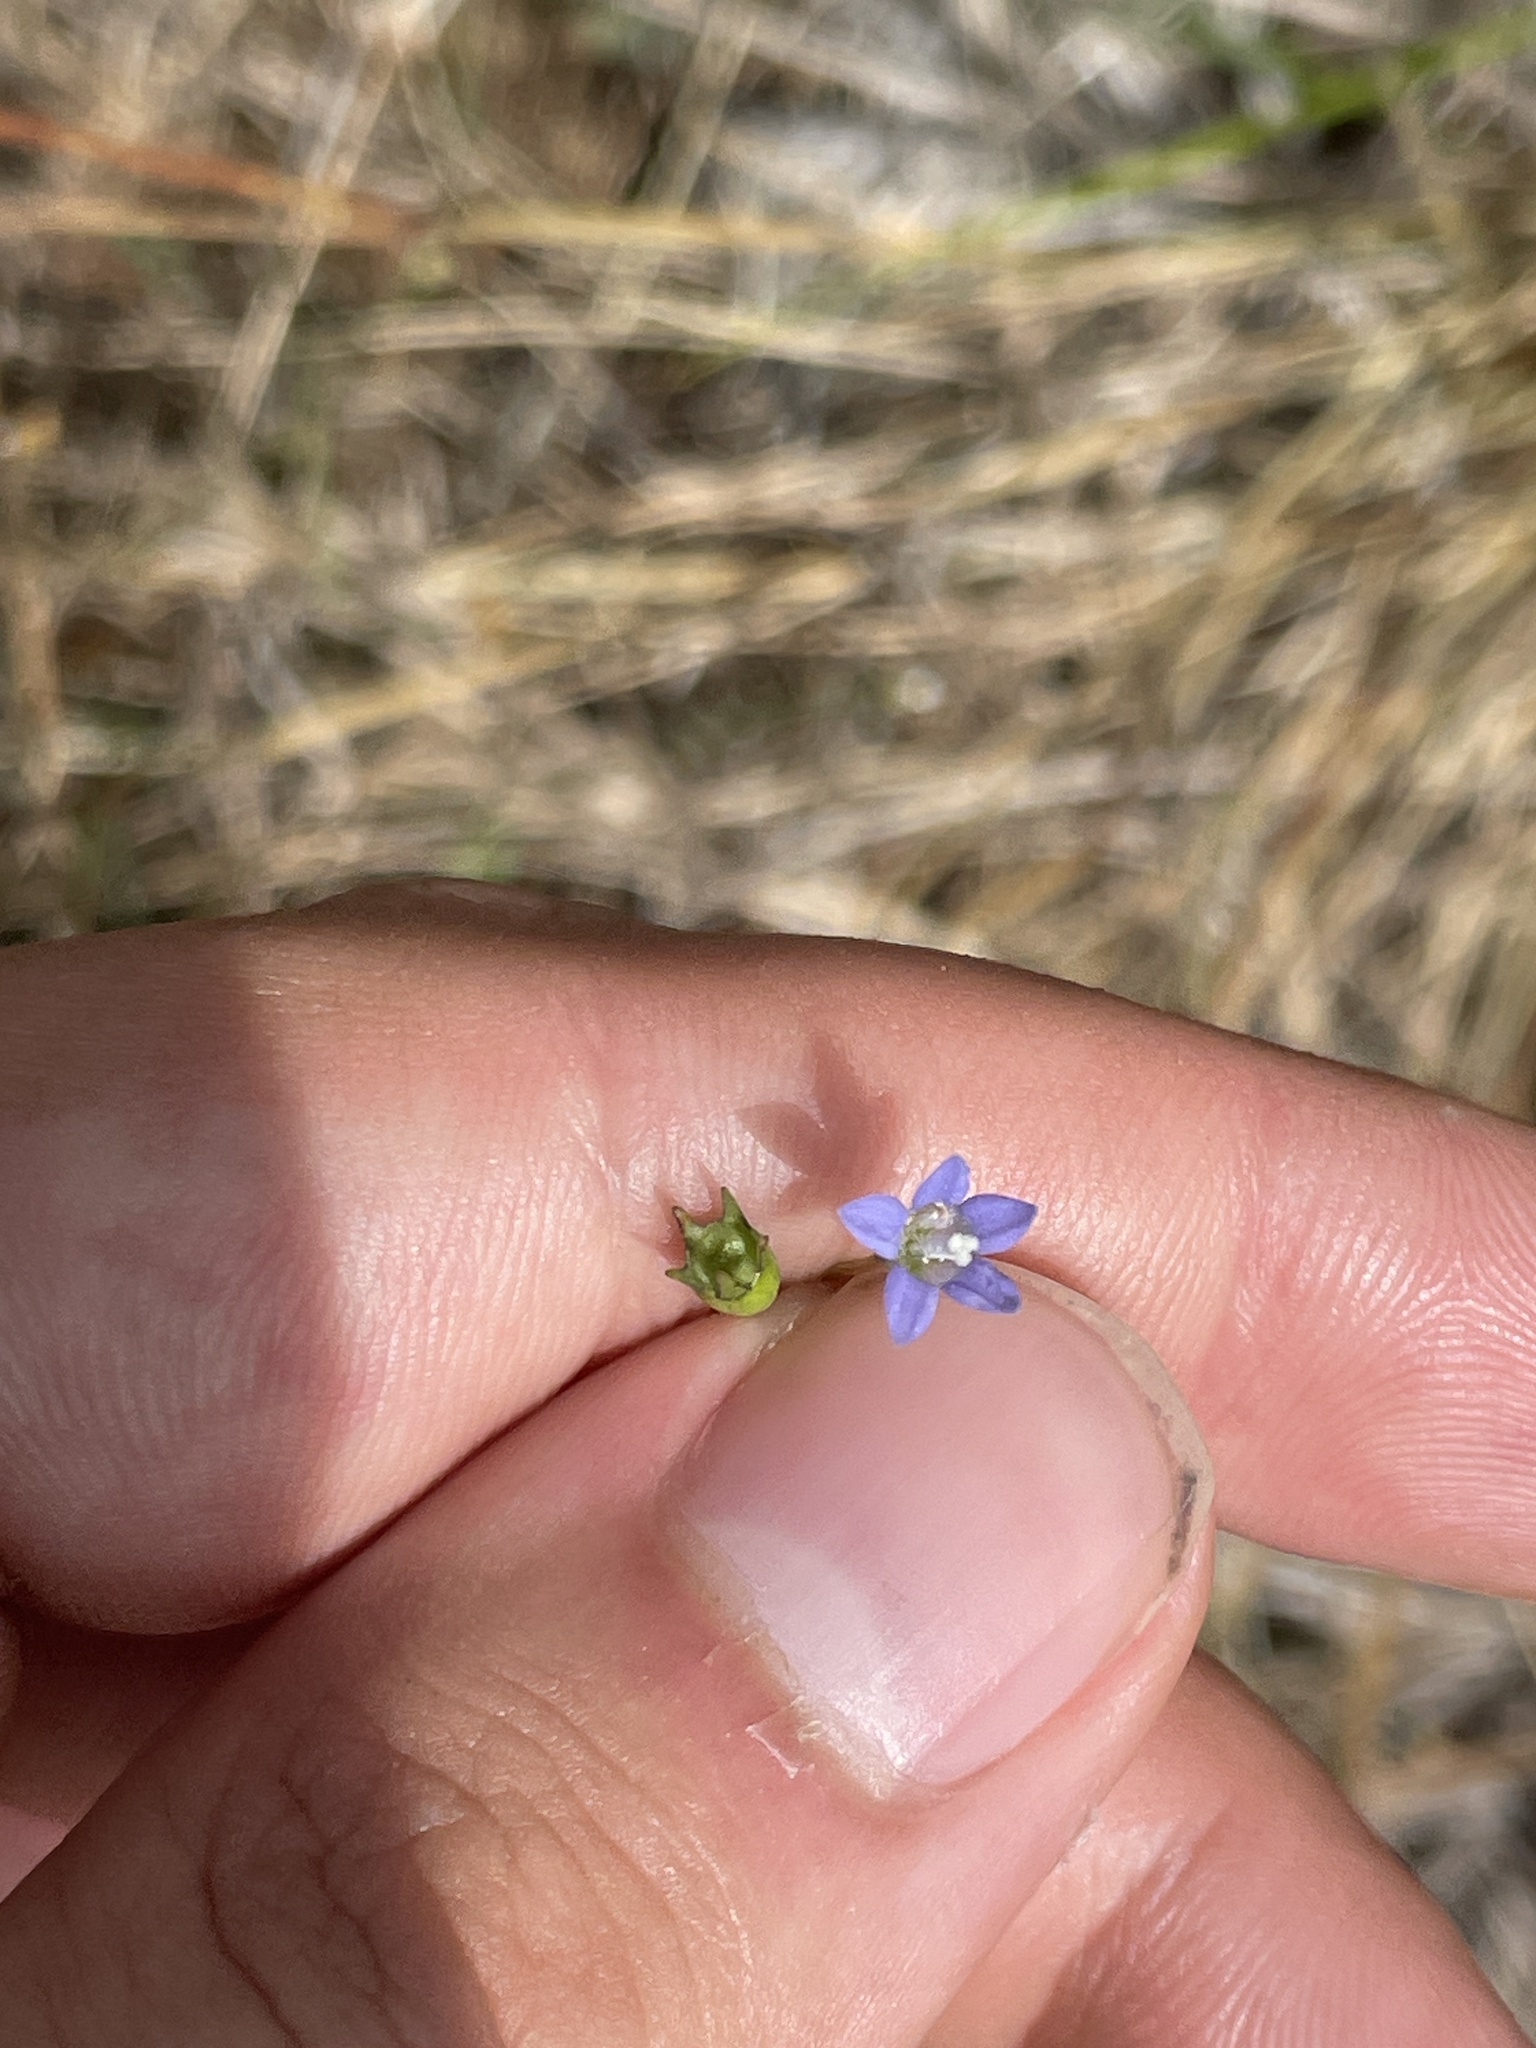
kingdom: Plantae
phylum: Tracheophyta
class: Magnoliopsida
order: Asterales
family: Campanulaceae
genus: Wahlenbergia
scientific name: Wahlenbergia marginata
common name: Southern rockbell
